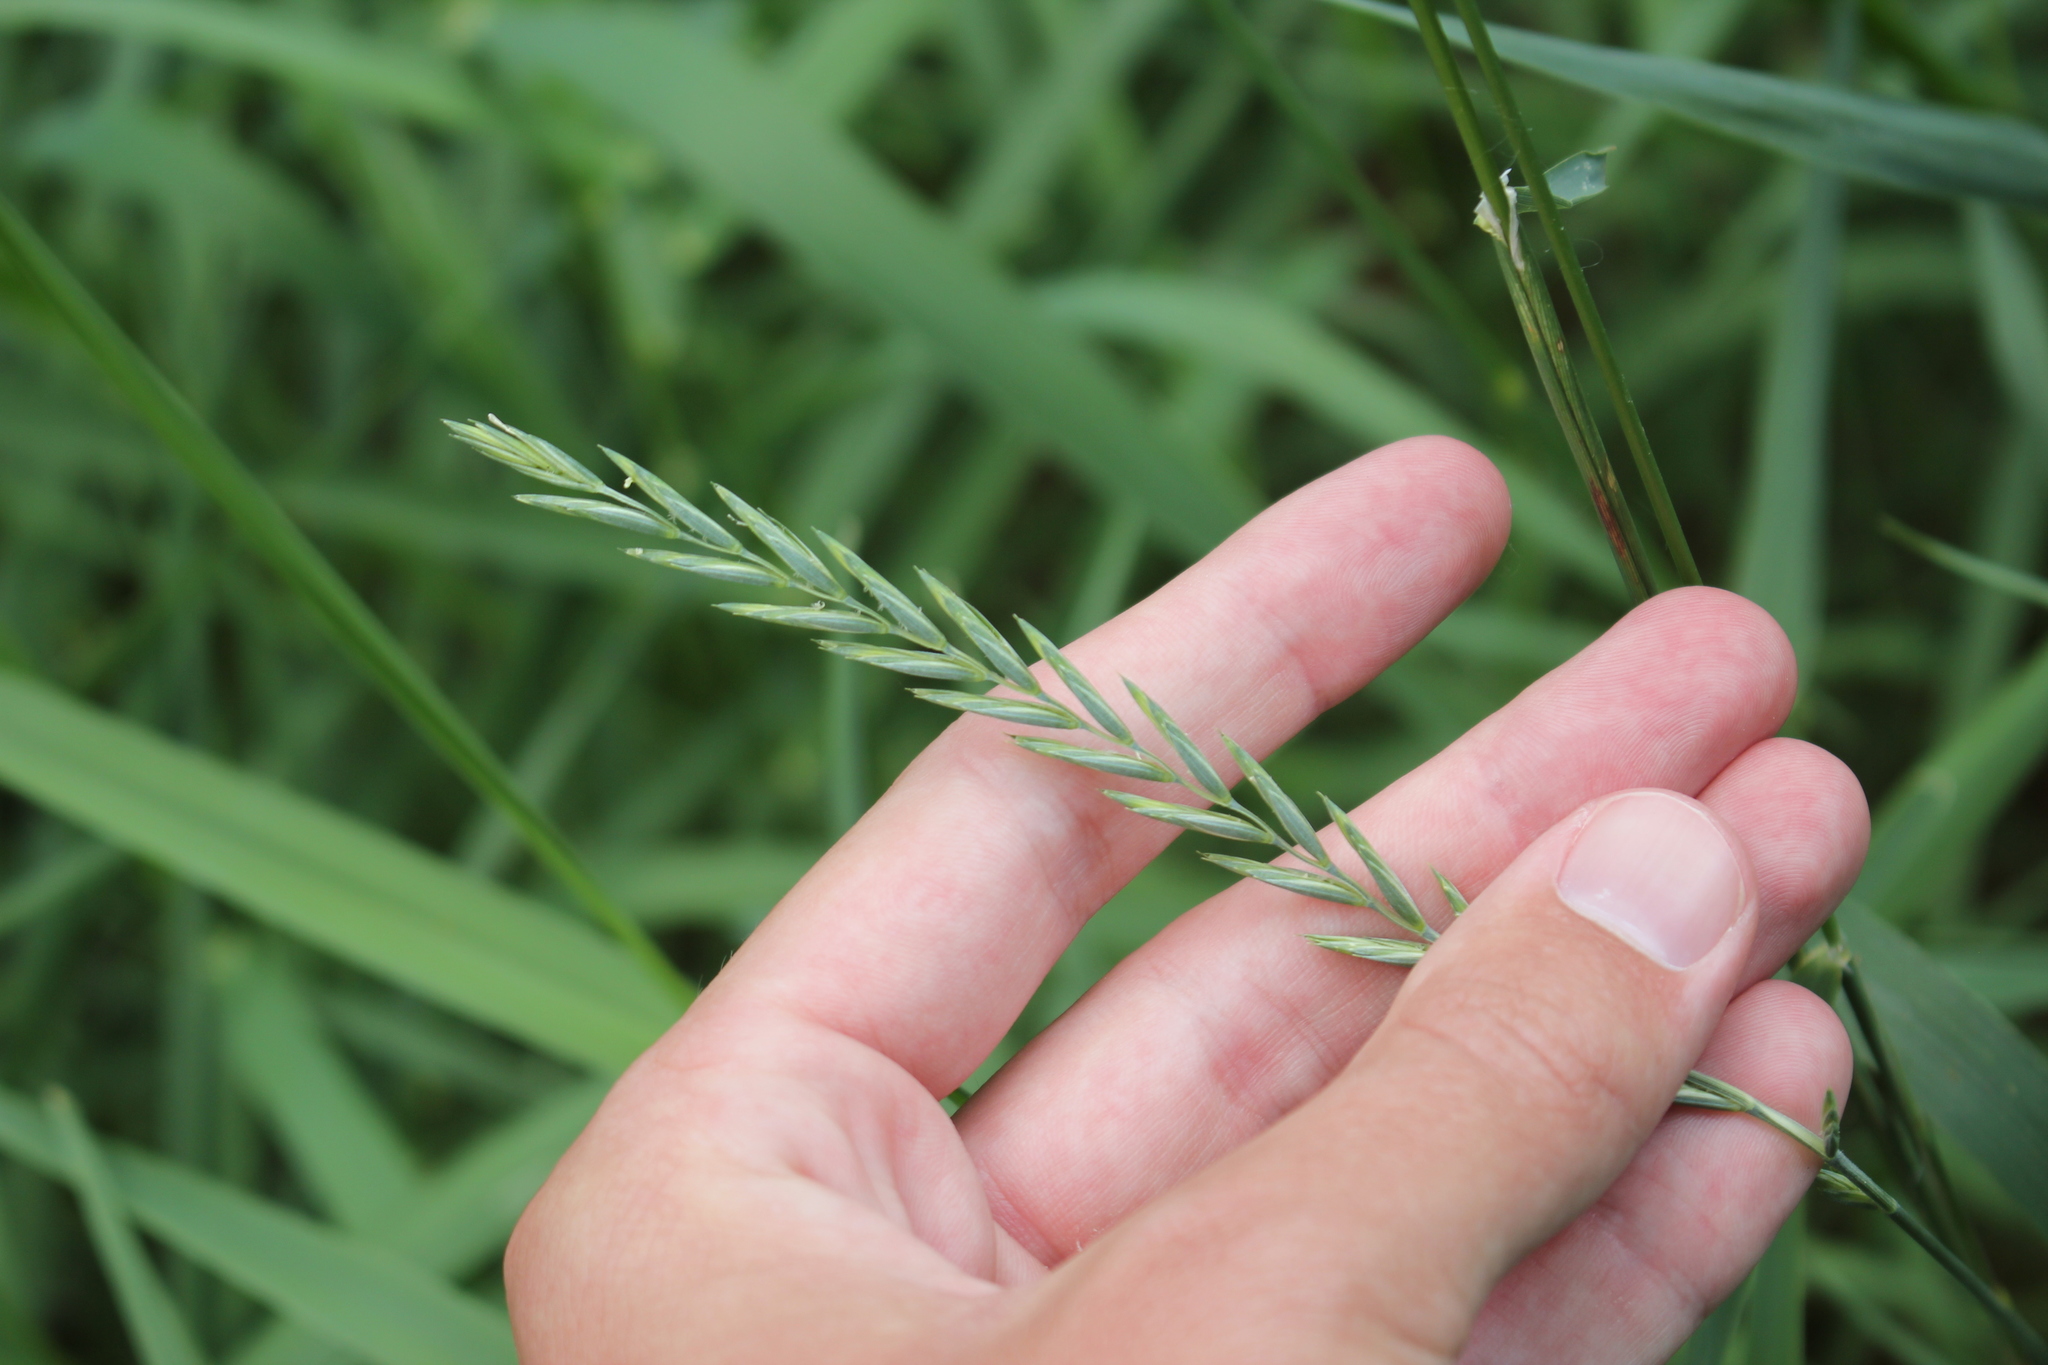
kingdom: Plantae
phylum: Tracheophyta
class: Liliopsida
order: Poales
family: Poaceae
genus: Elymus
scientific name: Elymus repens
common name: Quackgrass
